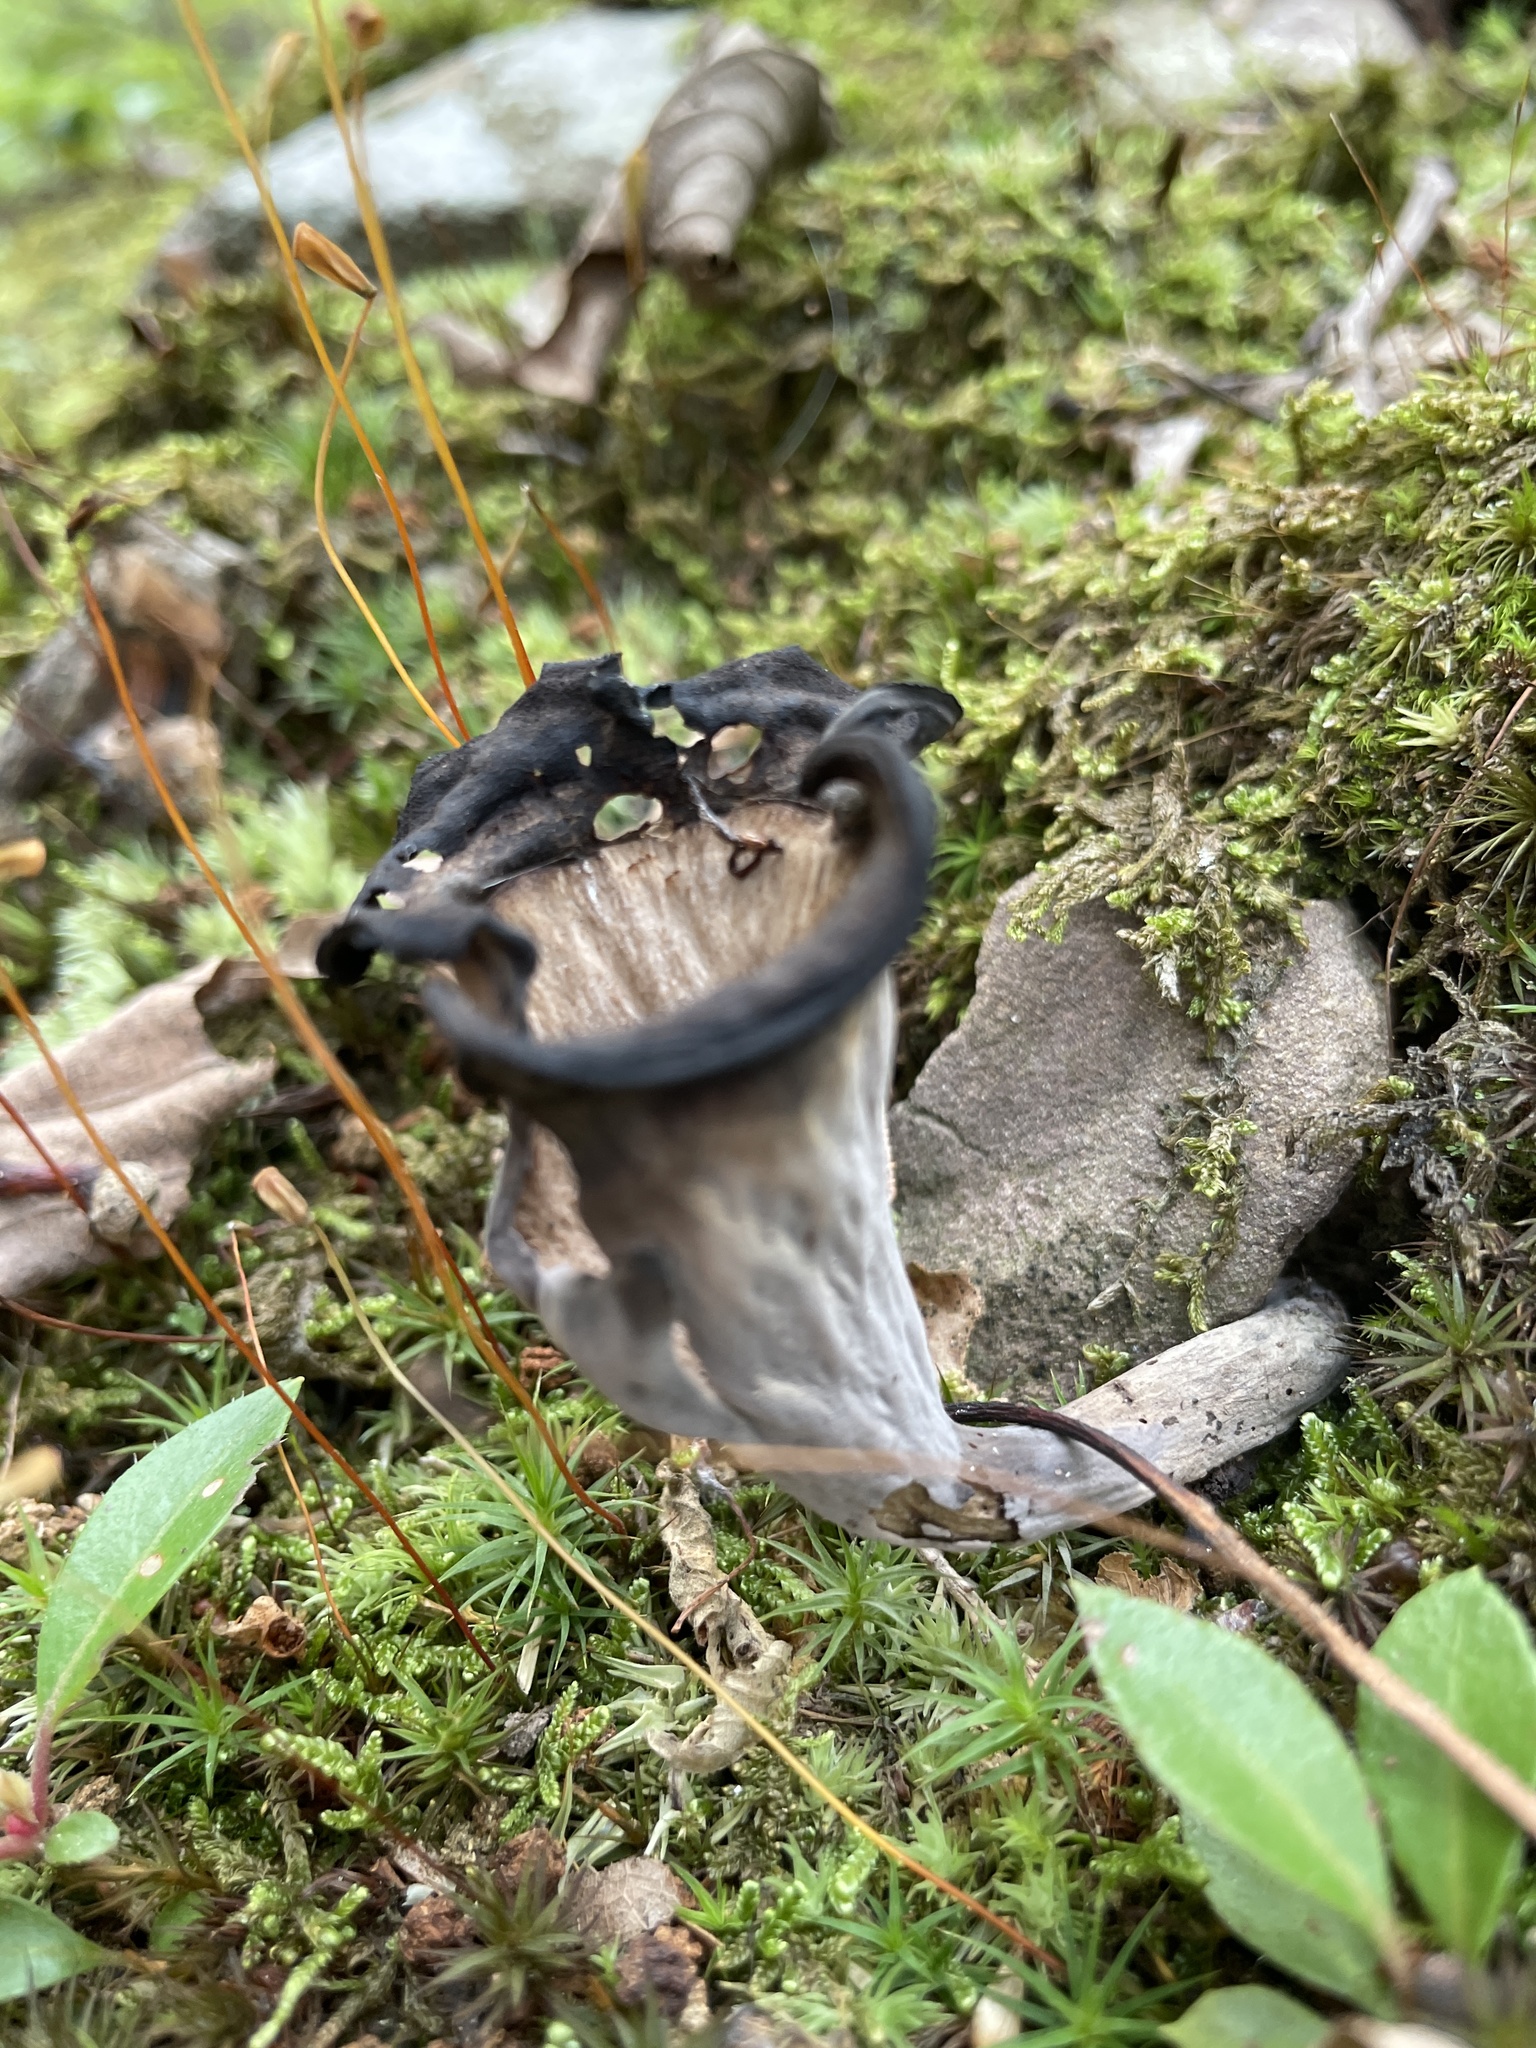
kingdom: Fungi
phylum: Basidiomycota
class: Agaricomycetes
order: Cantharellales
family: Hydnaceae
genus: Craterellus
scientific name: Craterellus cornucopioides
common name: Horn of plenty
